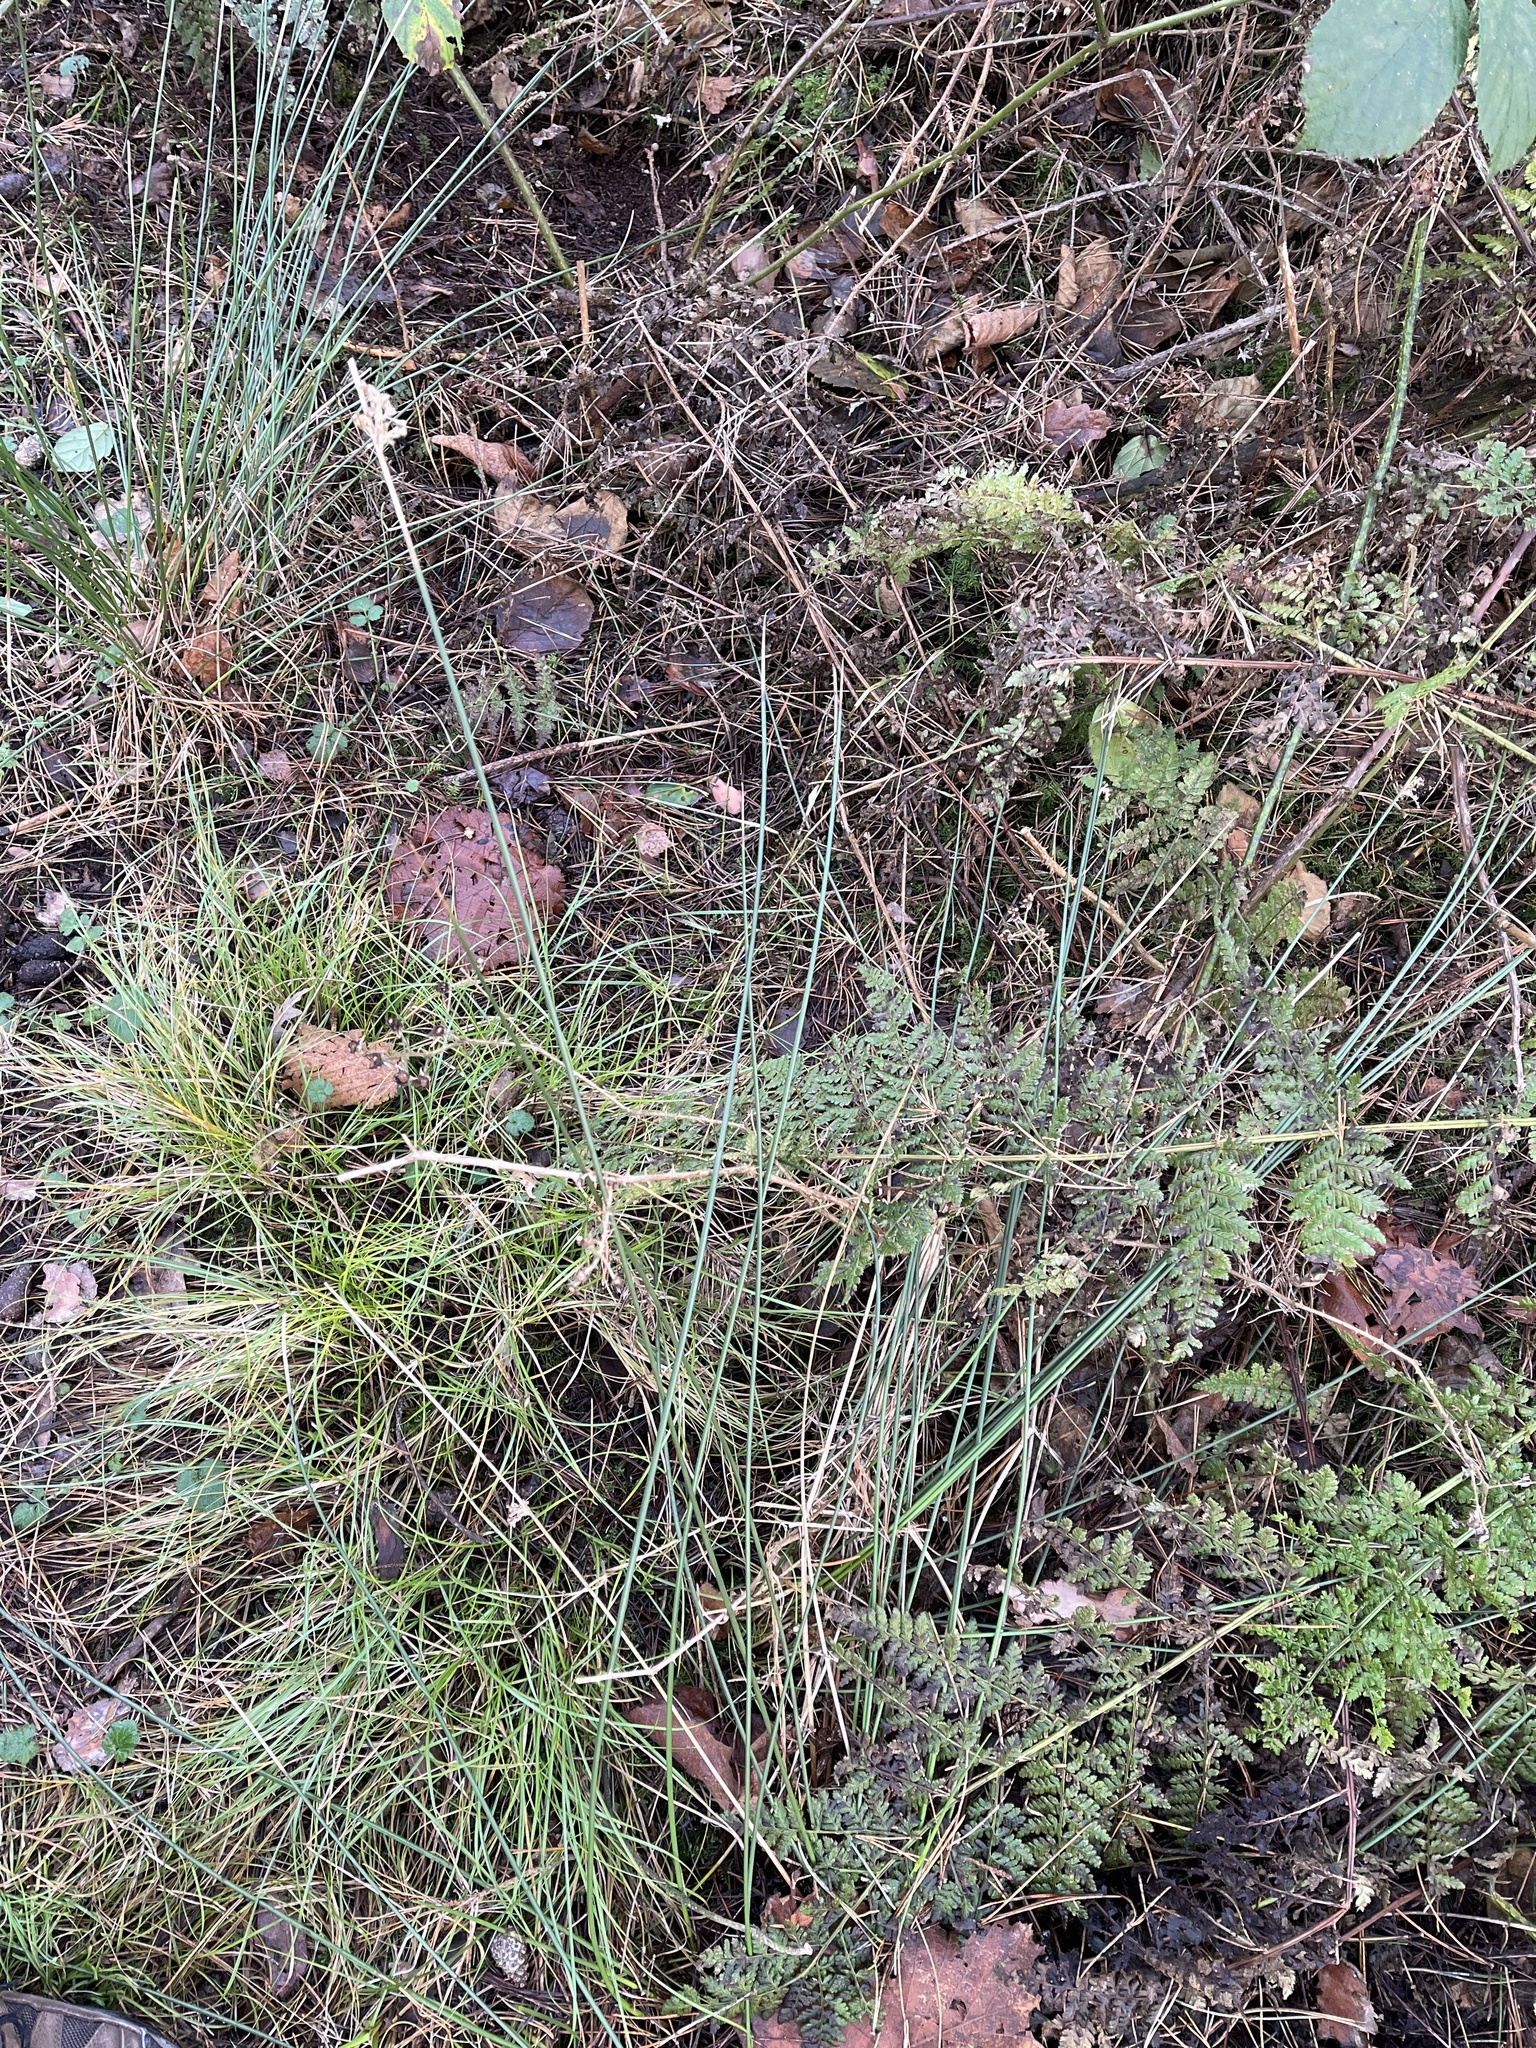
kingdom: Plantae
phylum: Tracheophyta
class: Liliopsida
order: Poales
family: Juncaceae
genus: Juncus
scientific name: Juncus effusus
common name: Soft rush
